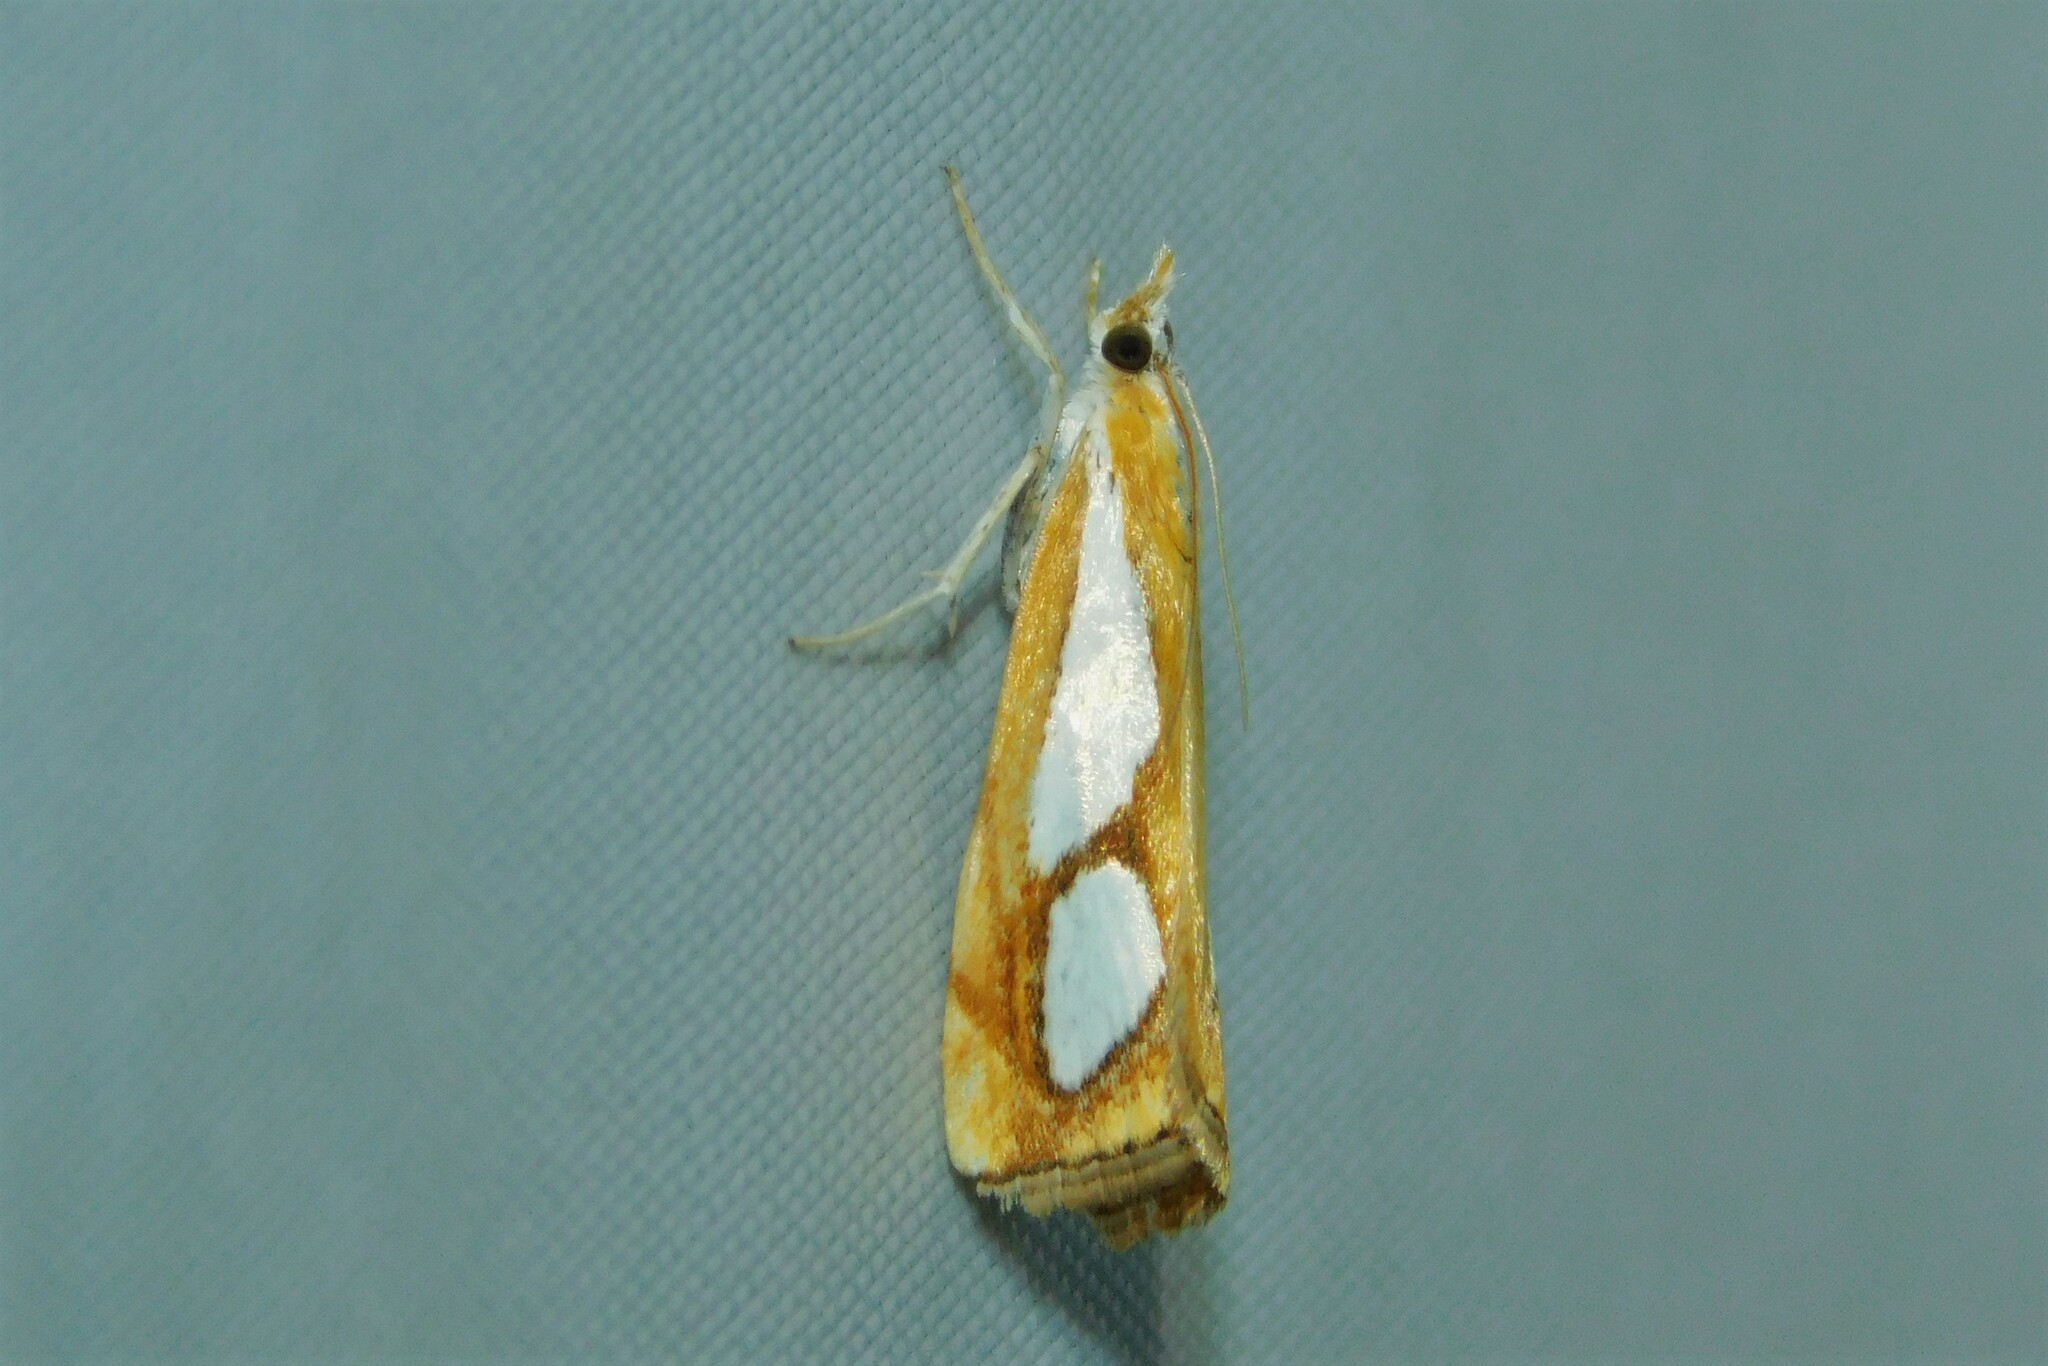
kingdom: Animalia
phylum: Arthropoda
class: Insecta
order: Lepidoptera
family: Crambidae
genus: Catoptria
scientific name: Catoptria pinella
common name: Pearl grass-veneer
